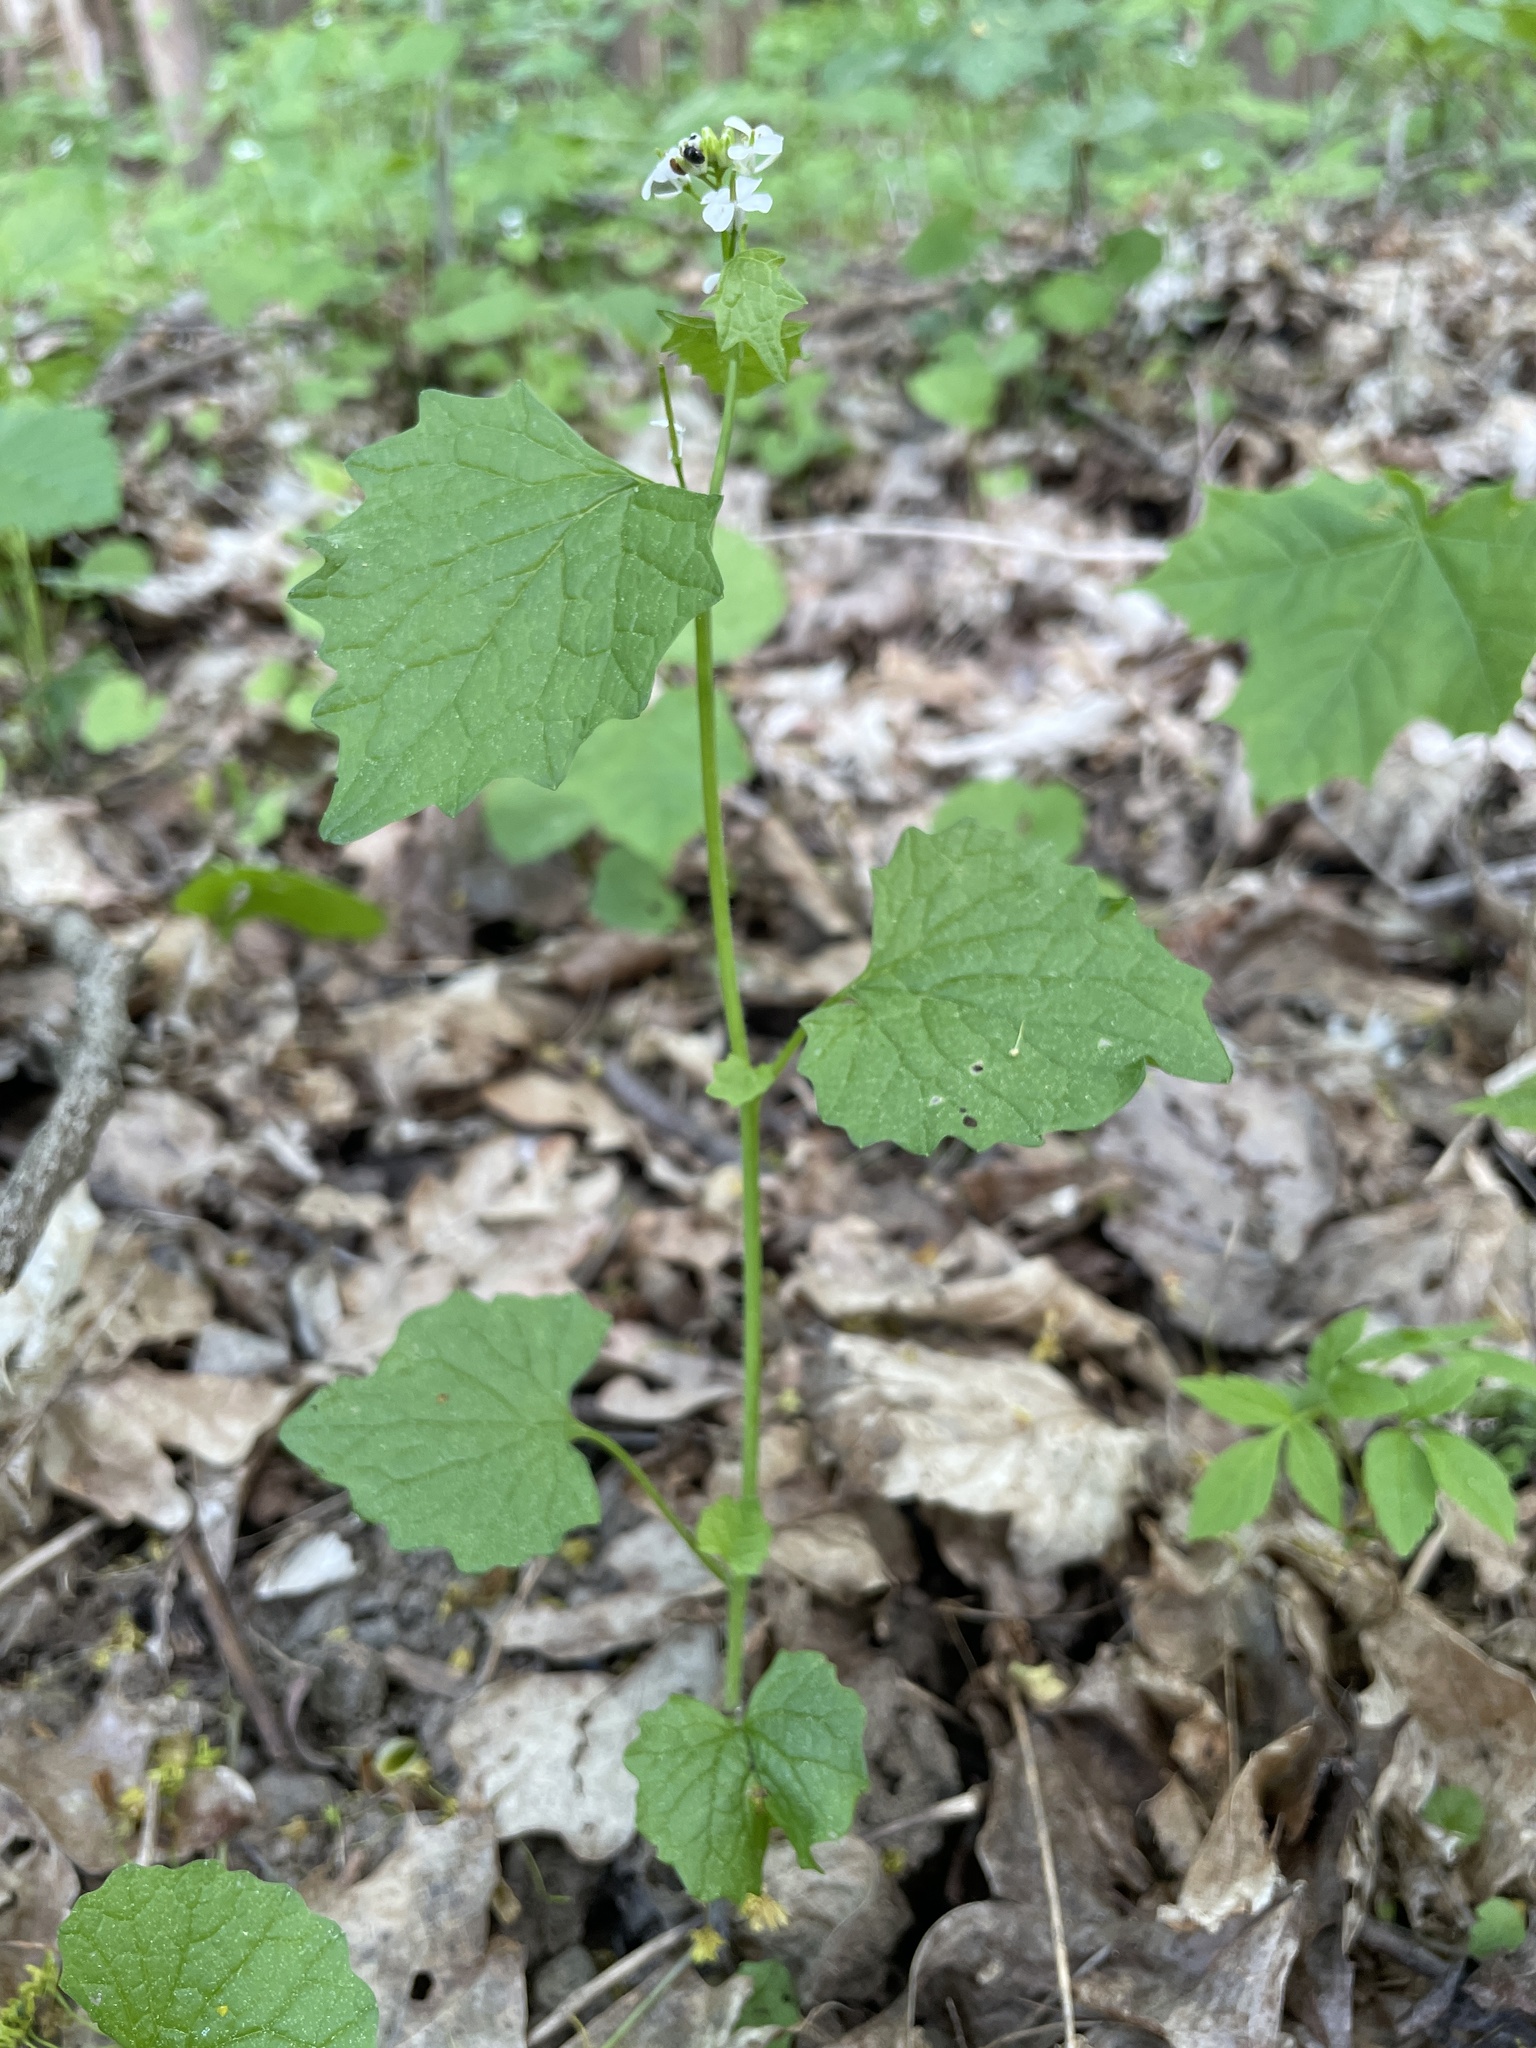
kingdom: Plantae
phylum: Tracheophyta
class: Magnoliopsida
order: Brassicales
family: Brassicaceae
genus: Alliaria
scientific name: Alliaria petiolata
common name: Garlic mustard
